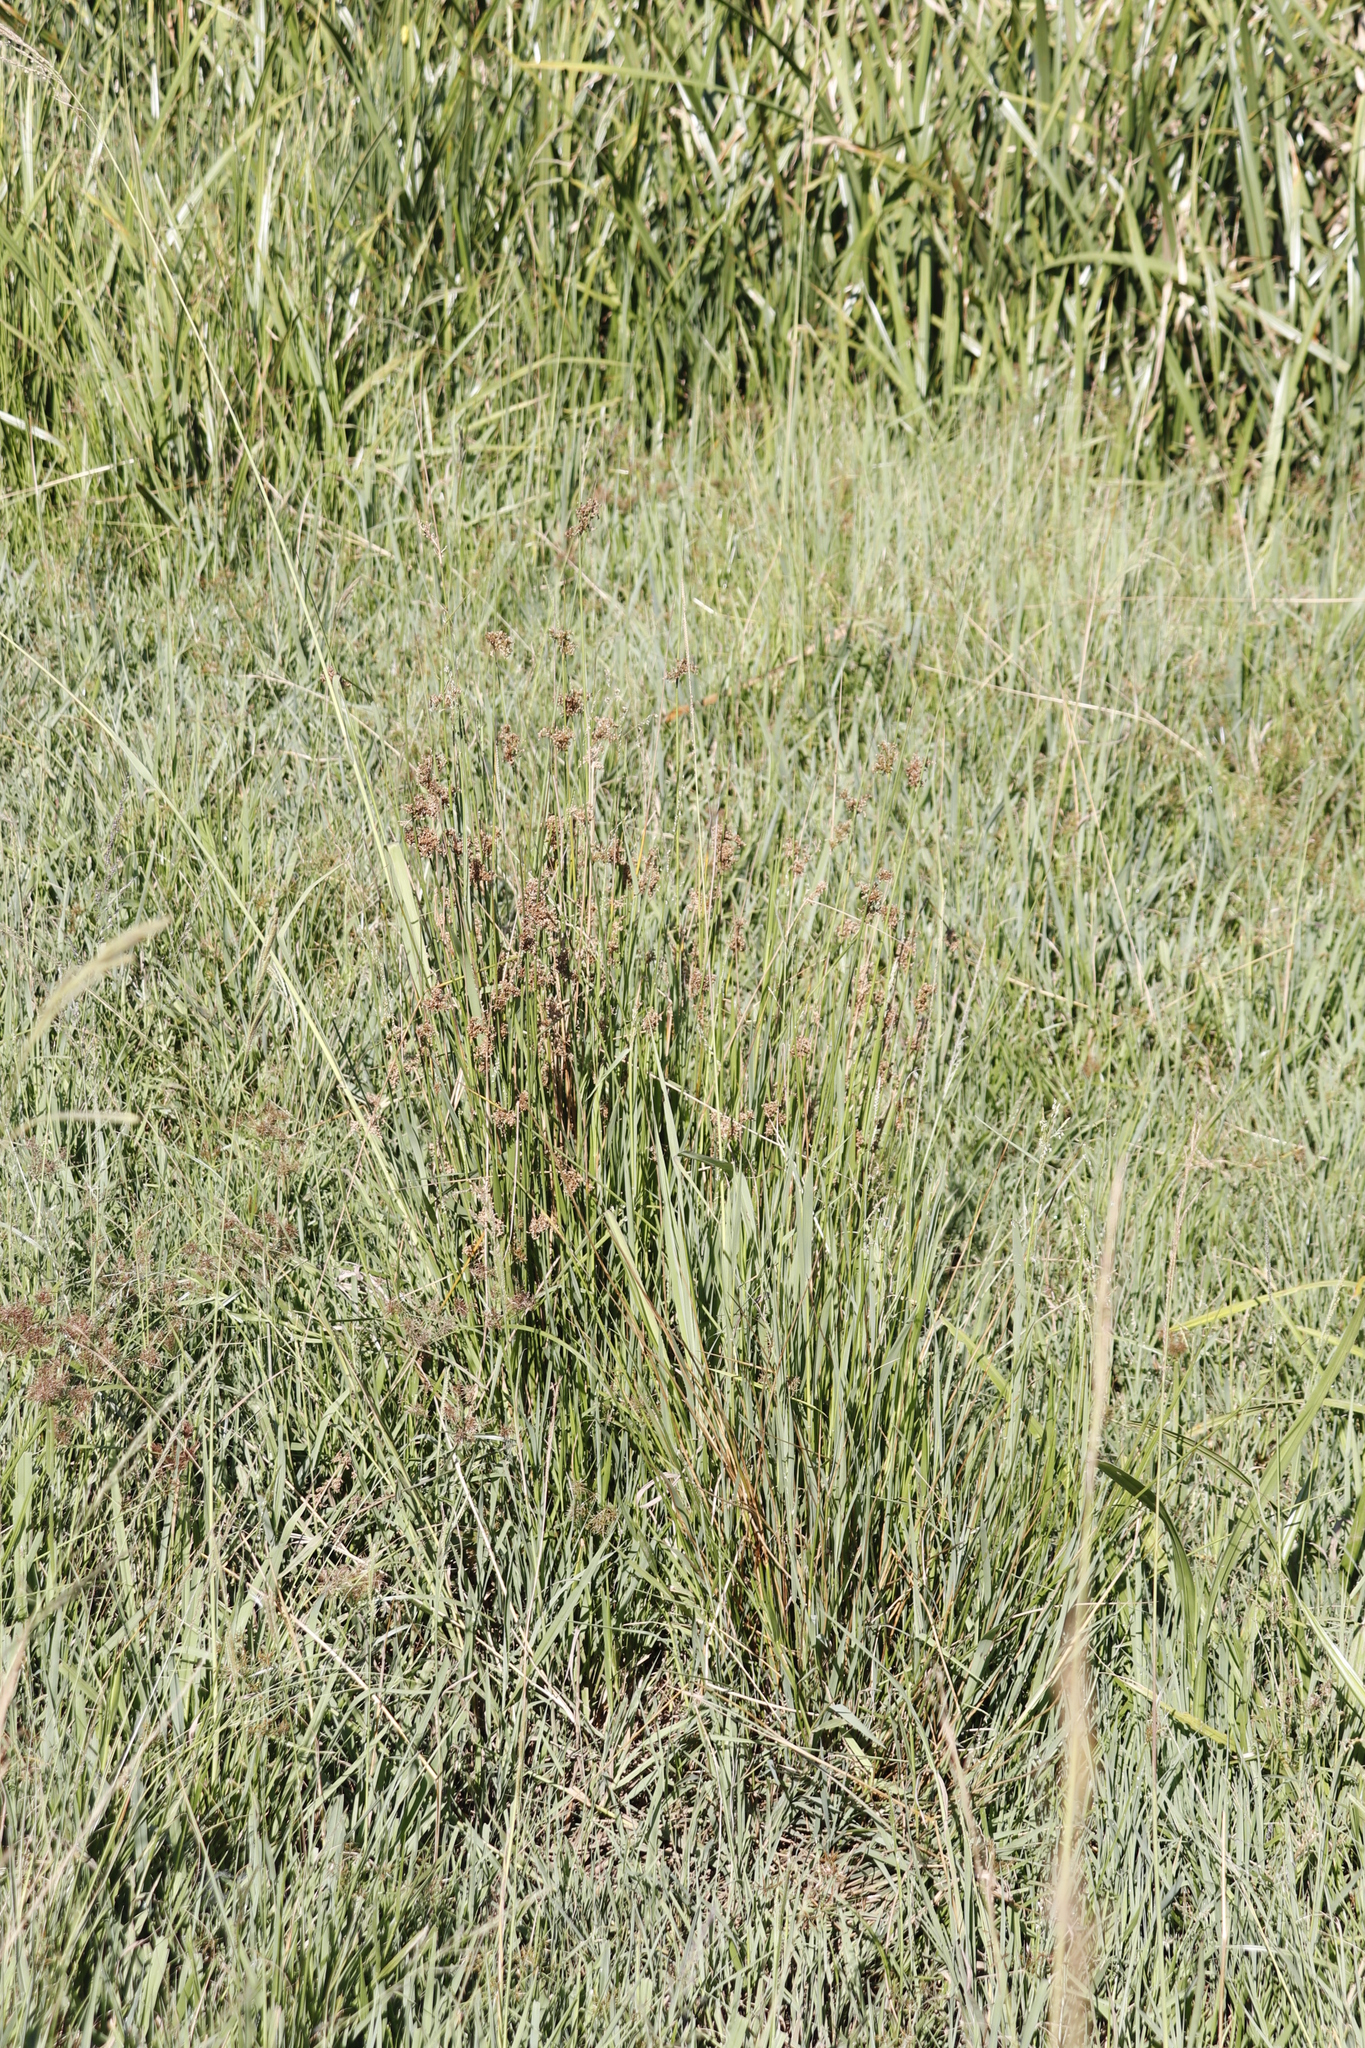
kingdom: Plantae
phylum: Tracheophyta
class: Liliopsida
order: Poales
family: Juncaceae
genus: Juncus
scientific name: Juncus effusus
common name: Soft rush
